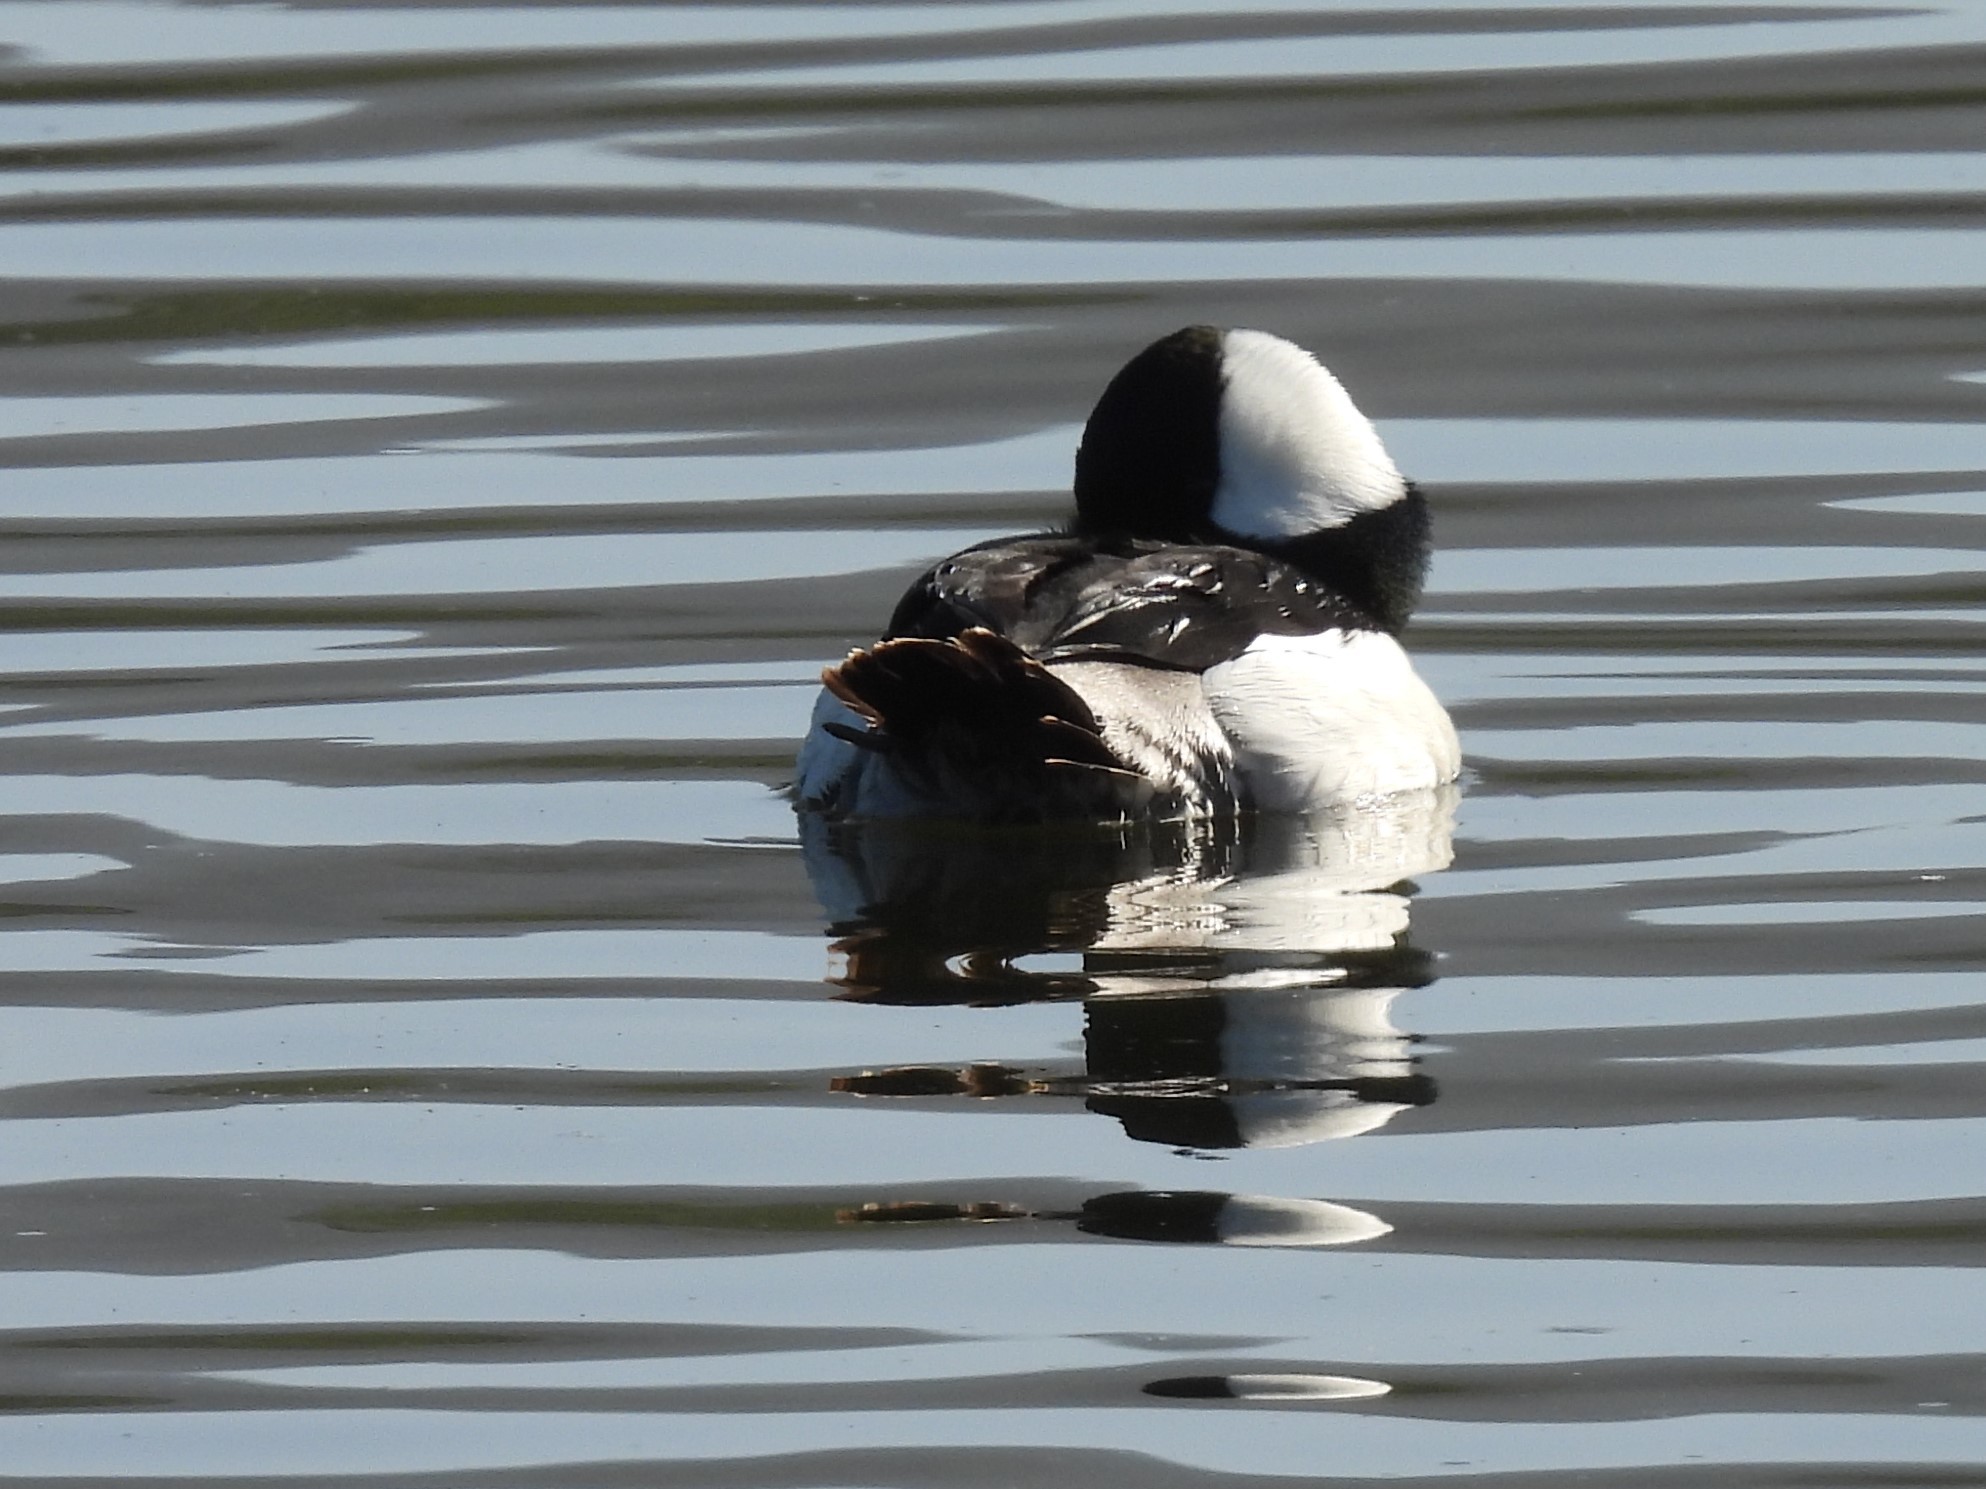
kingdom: Animalia
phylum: Chordata
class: Aves
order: Anseriformes
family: Anatidae
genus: Bucephala
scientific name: Bucephala albeola
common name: Bufflehead
